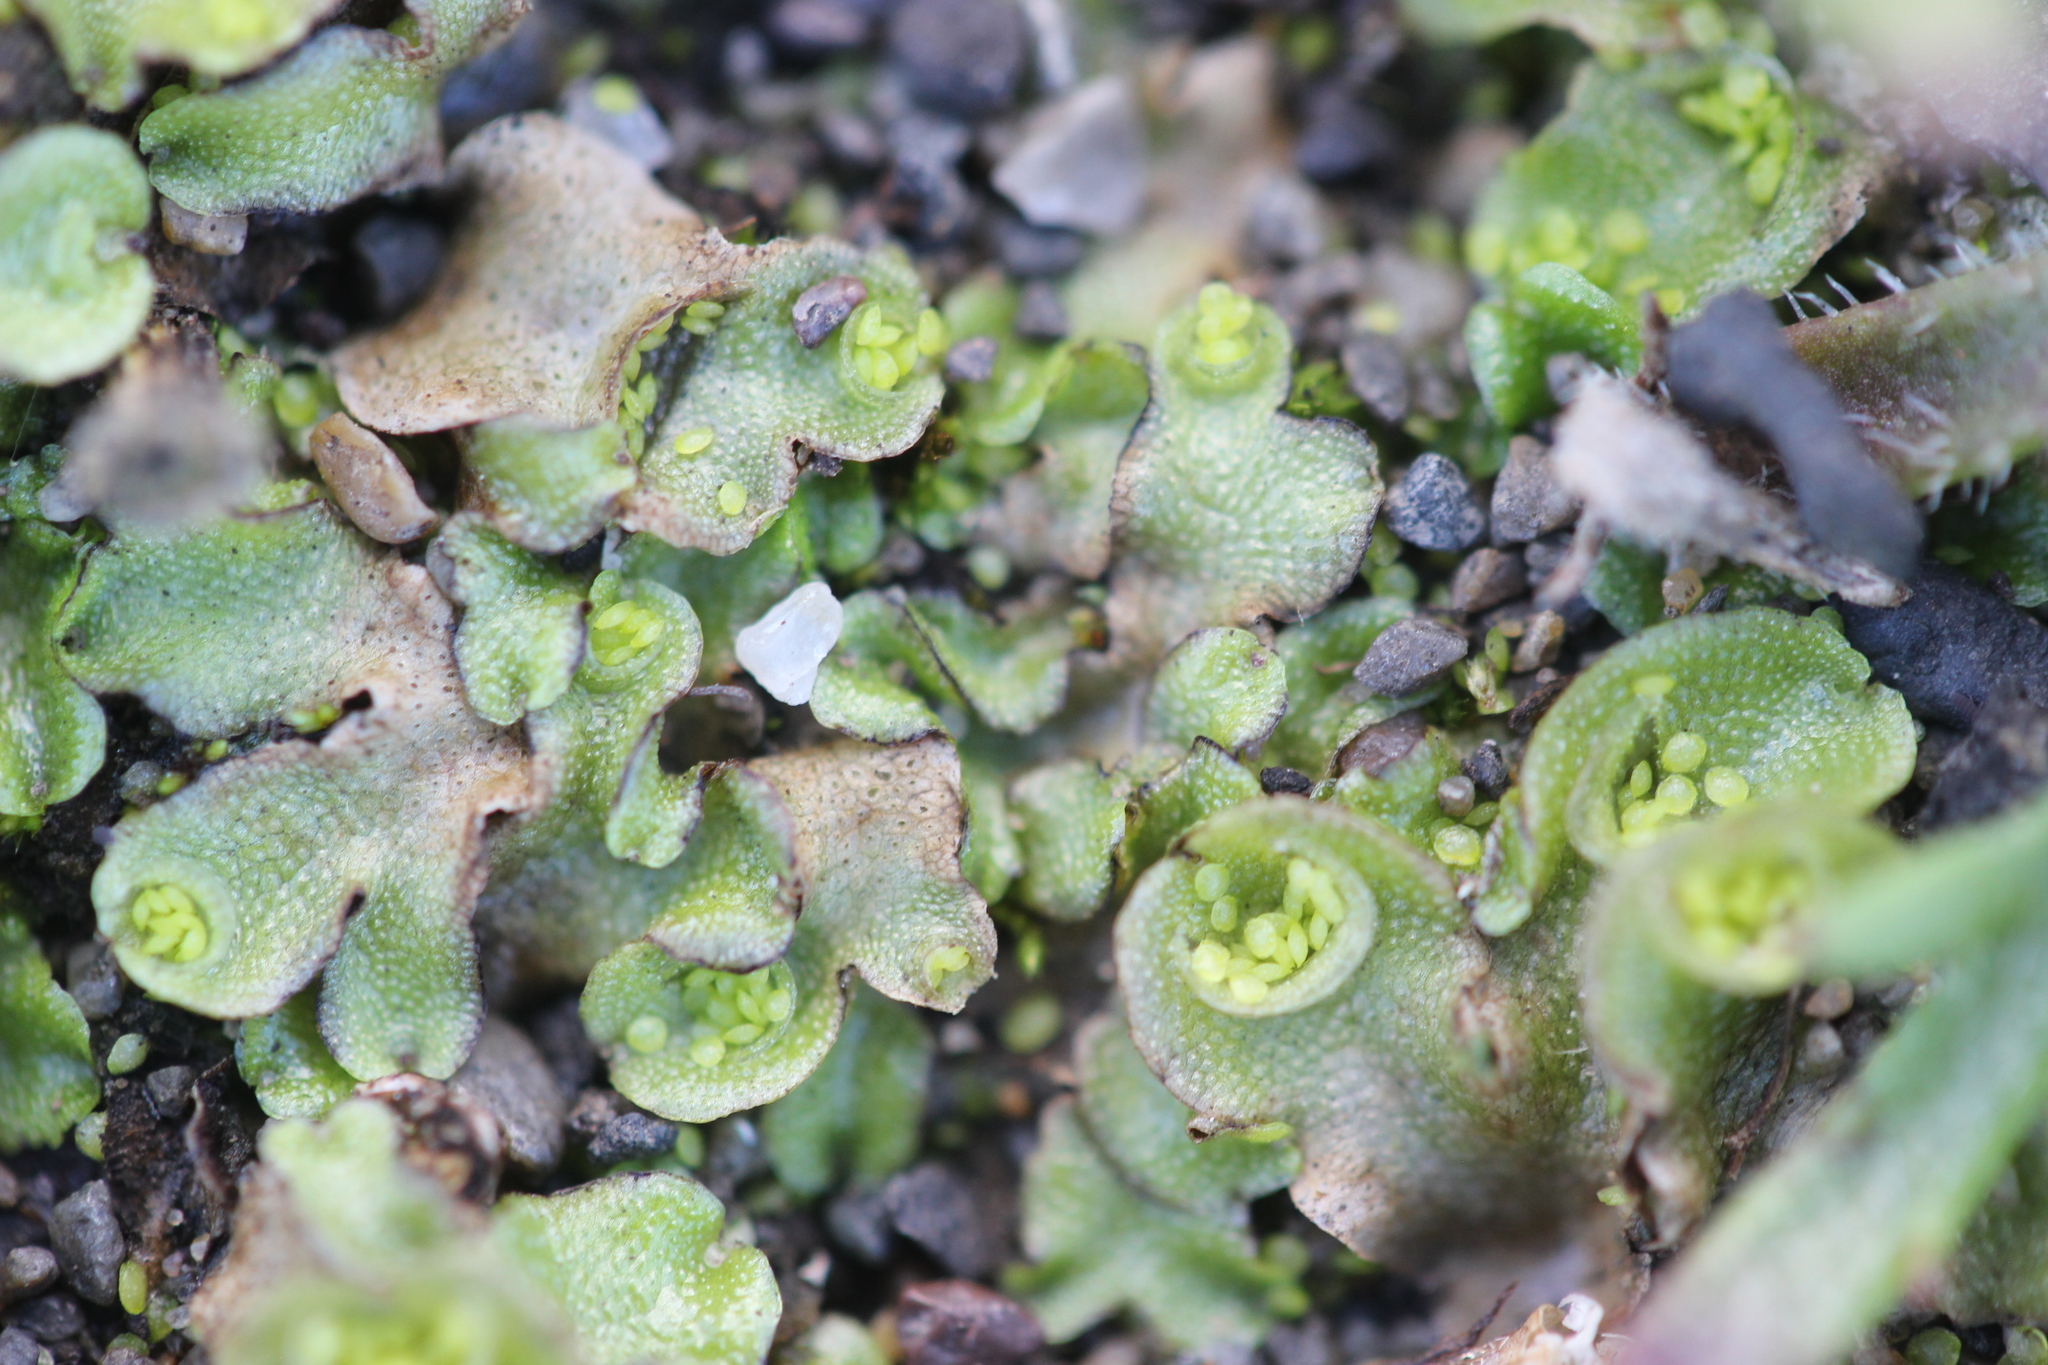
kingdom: Plantae
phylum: Marchantiophyta
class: Marchantiopsida
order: Lunulariales
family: Lunulariaceae
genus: Lunularia
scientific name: Lunularia cruciata
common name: Crescent-cup liverwort
